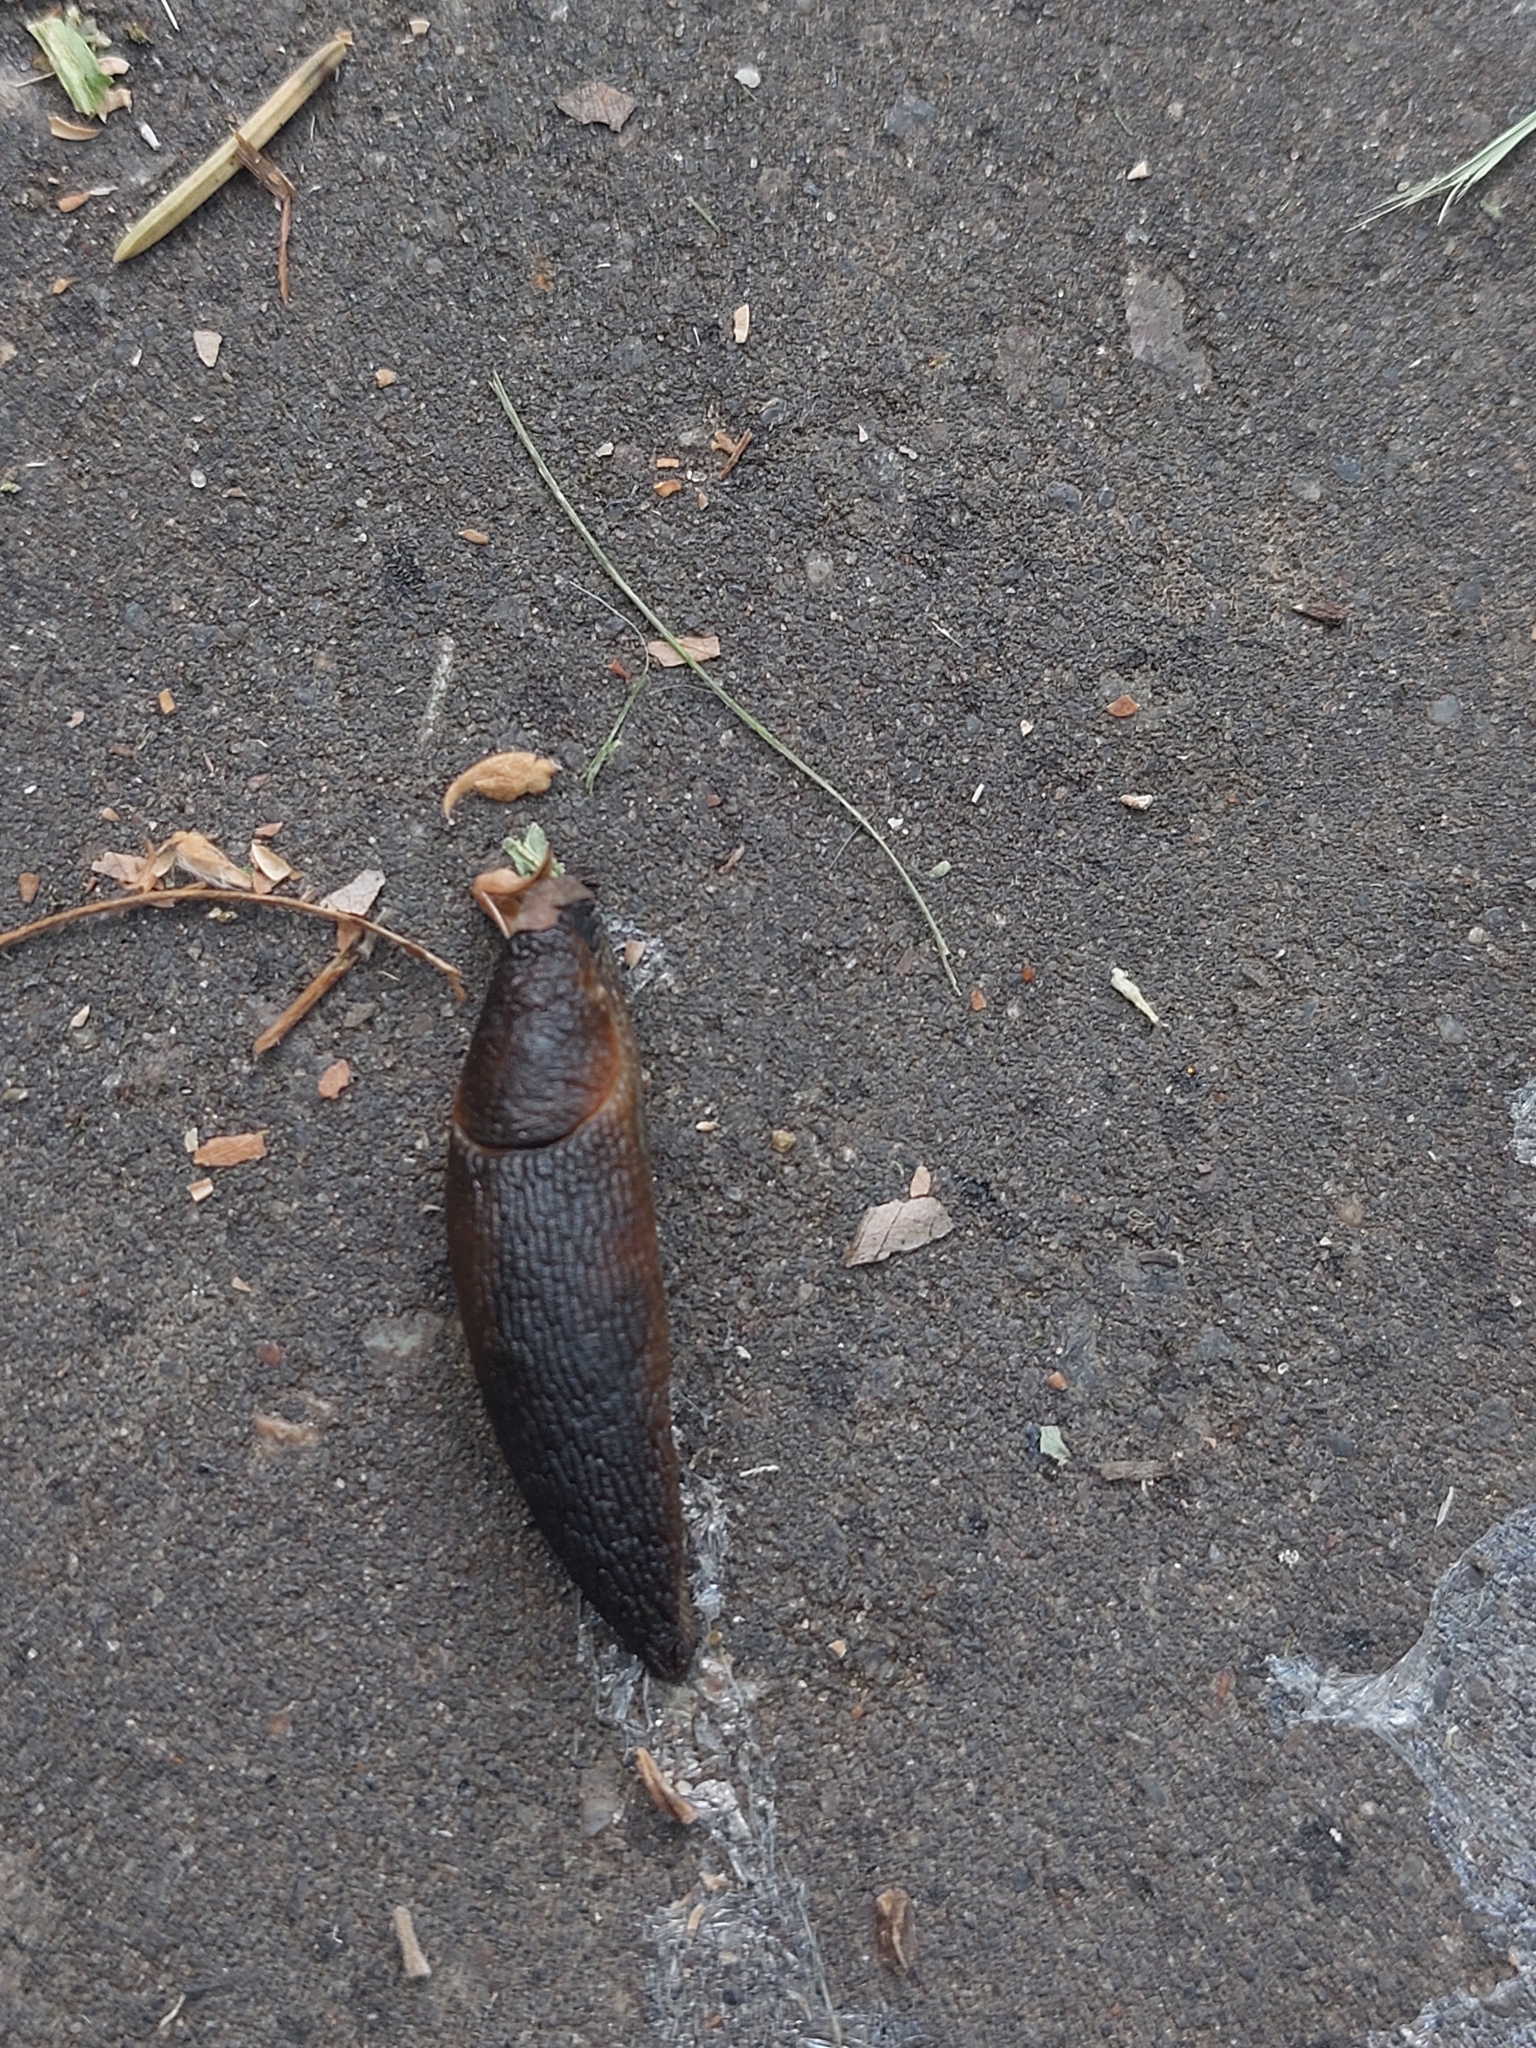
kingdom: Animalia
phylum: Mollusca
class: Gastropoda
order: Stylommatophora
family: Arionidae
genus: Arion
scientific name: Arion
